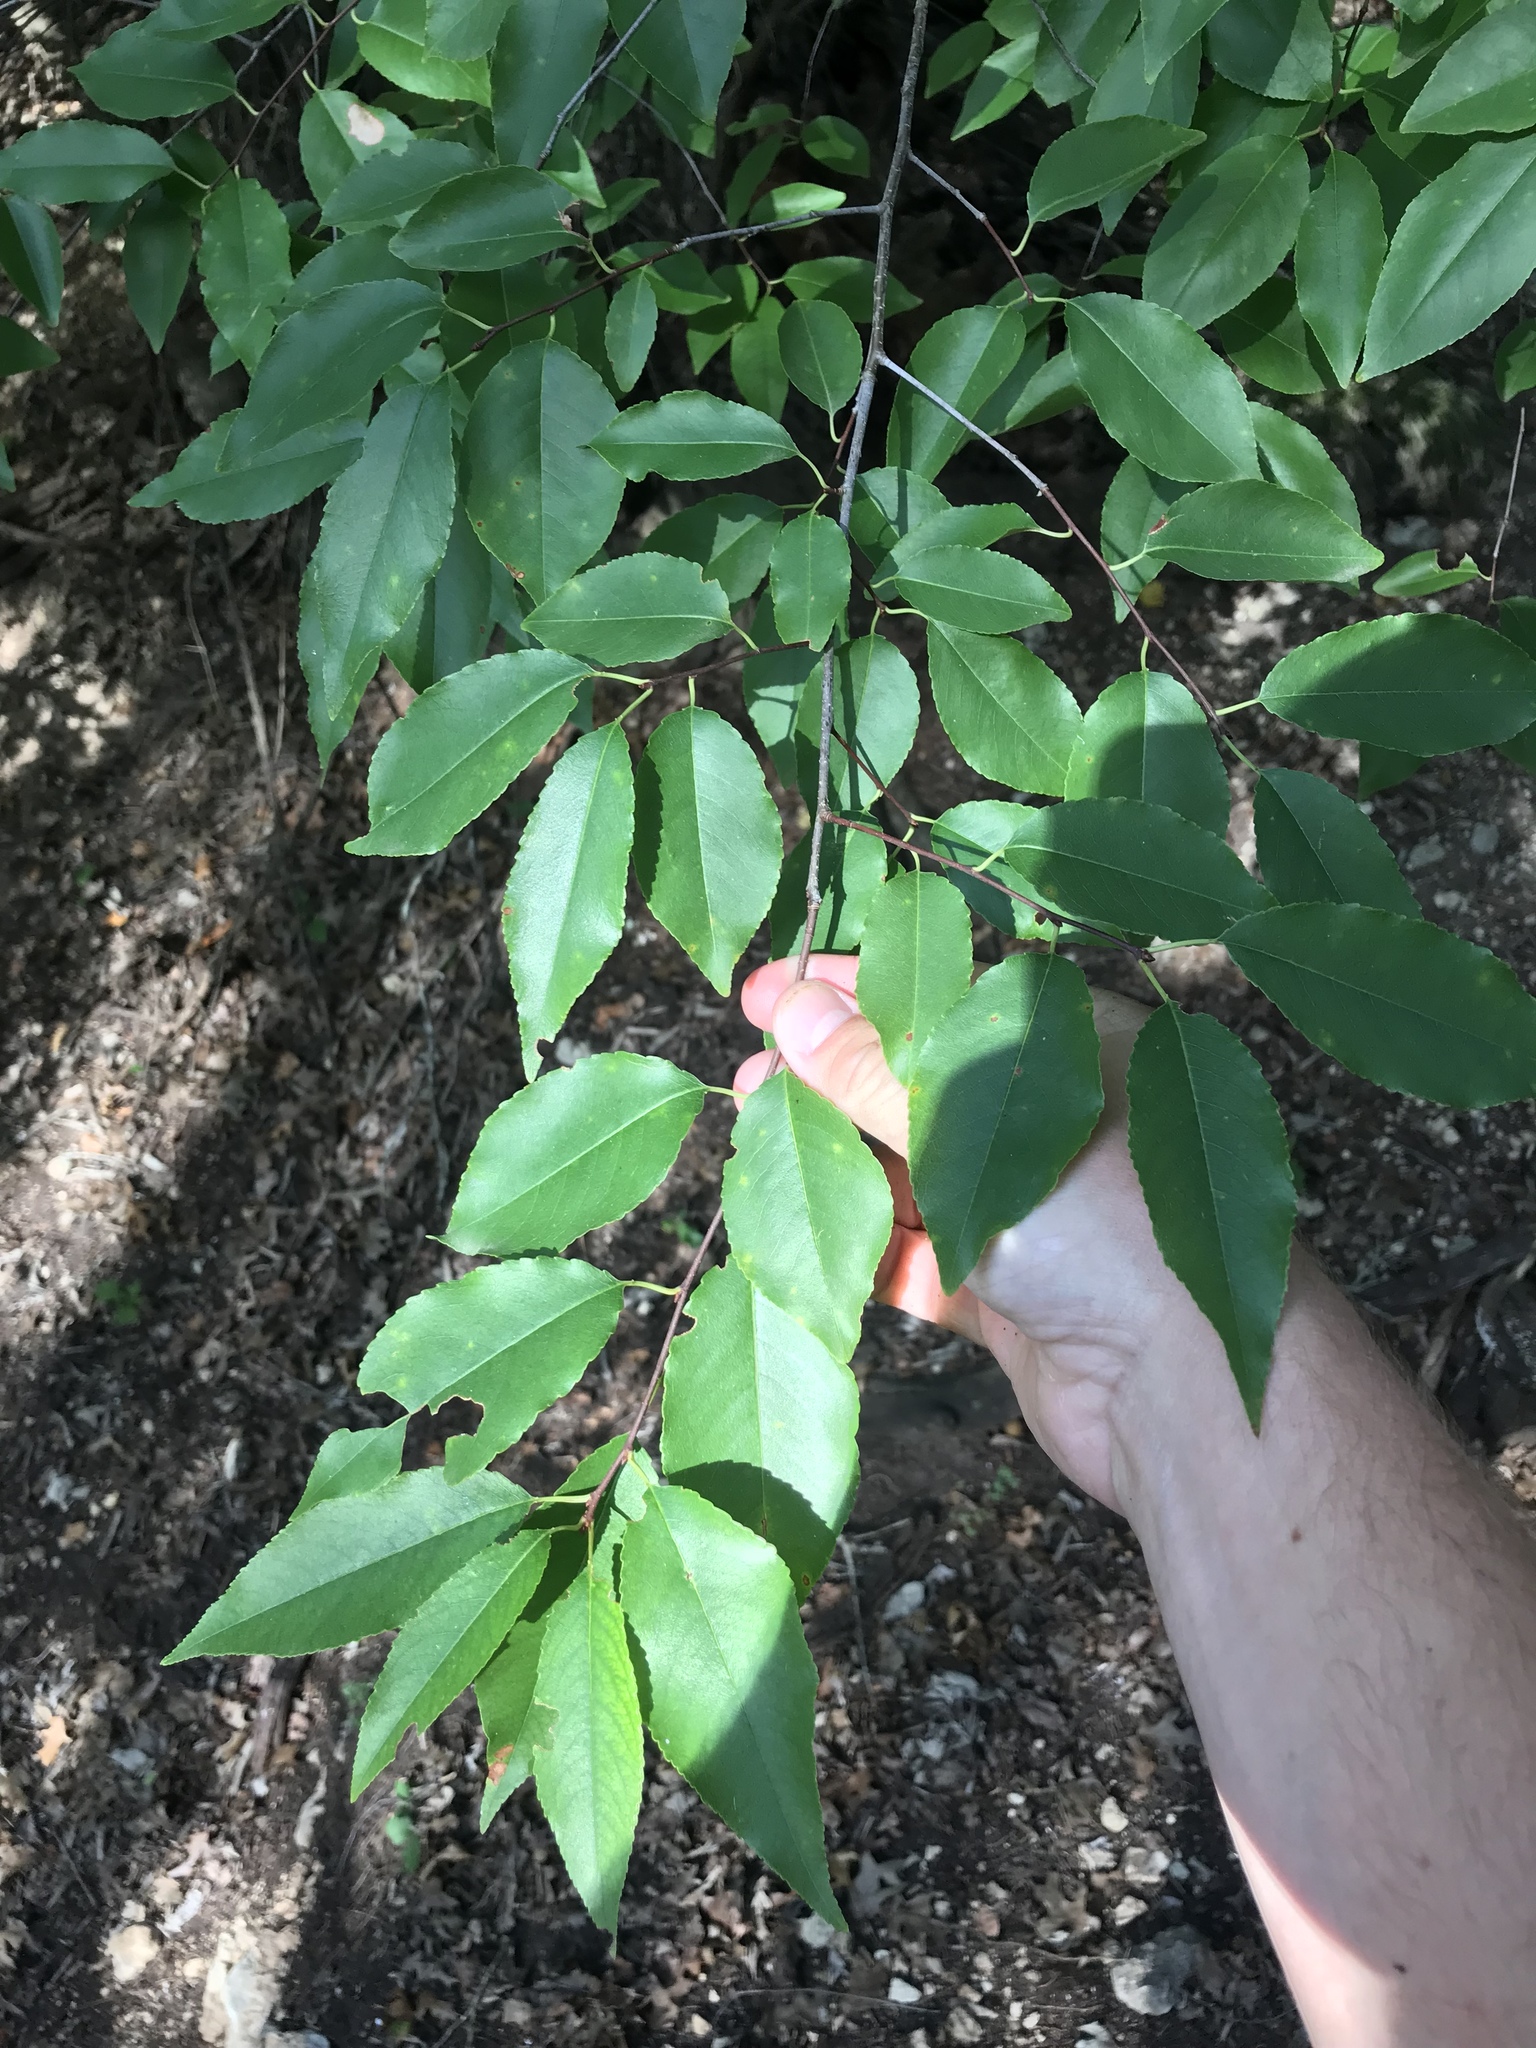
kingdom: Plantae
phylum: Tracheophyta
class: Magnoliopsida
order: Rosales
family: Rosaceae
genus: Prunus
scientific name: Prunus serotina
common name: Black cherry
